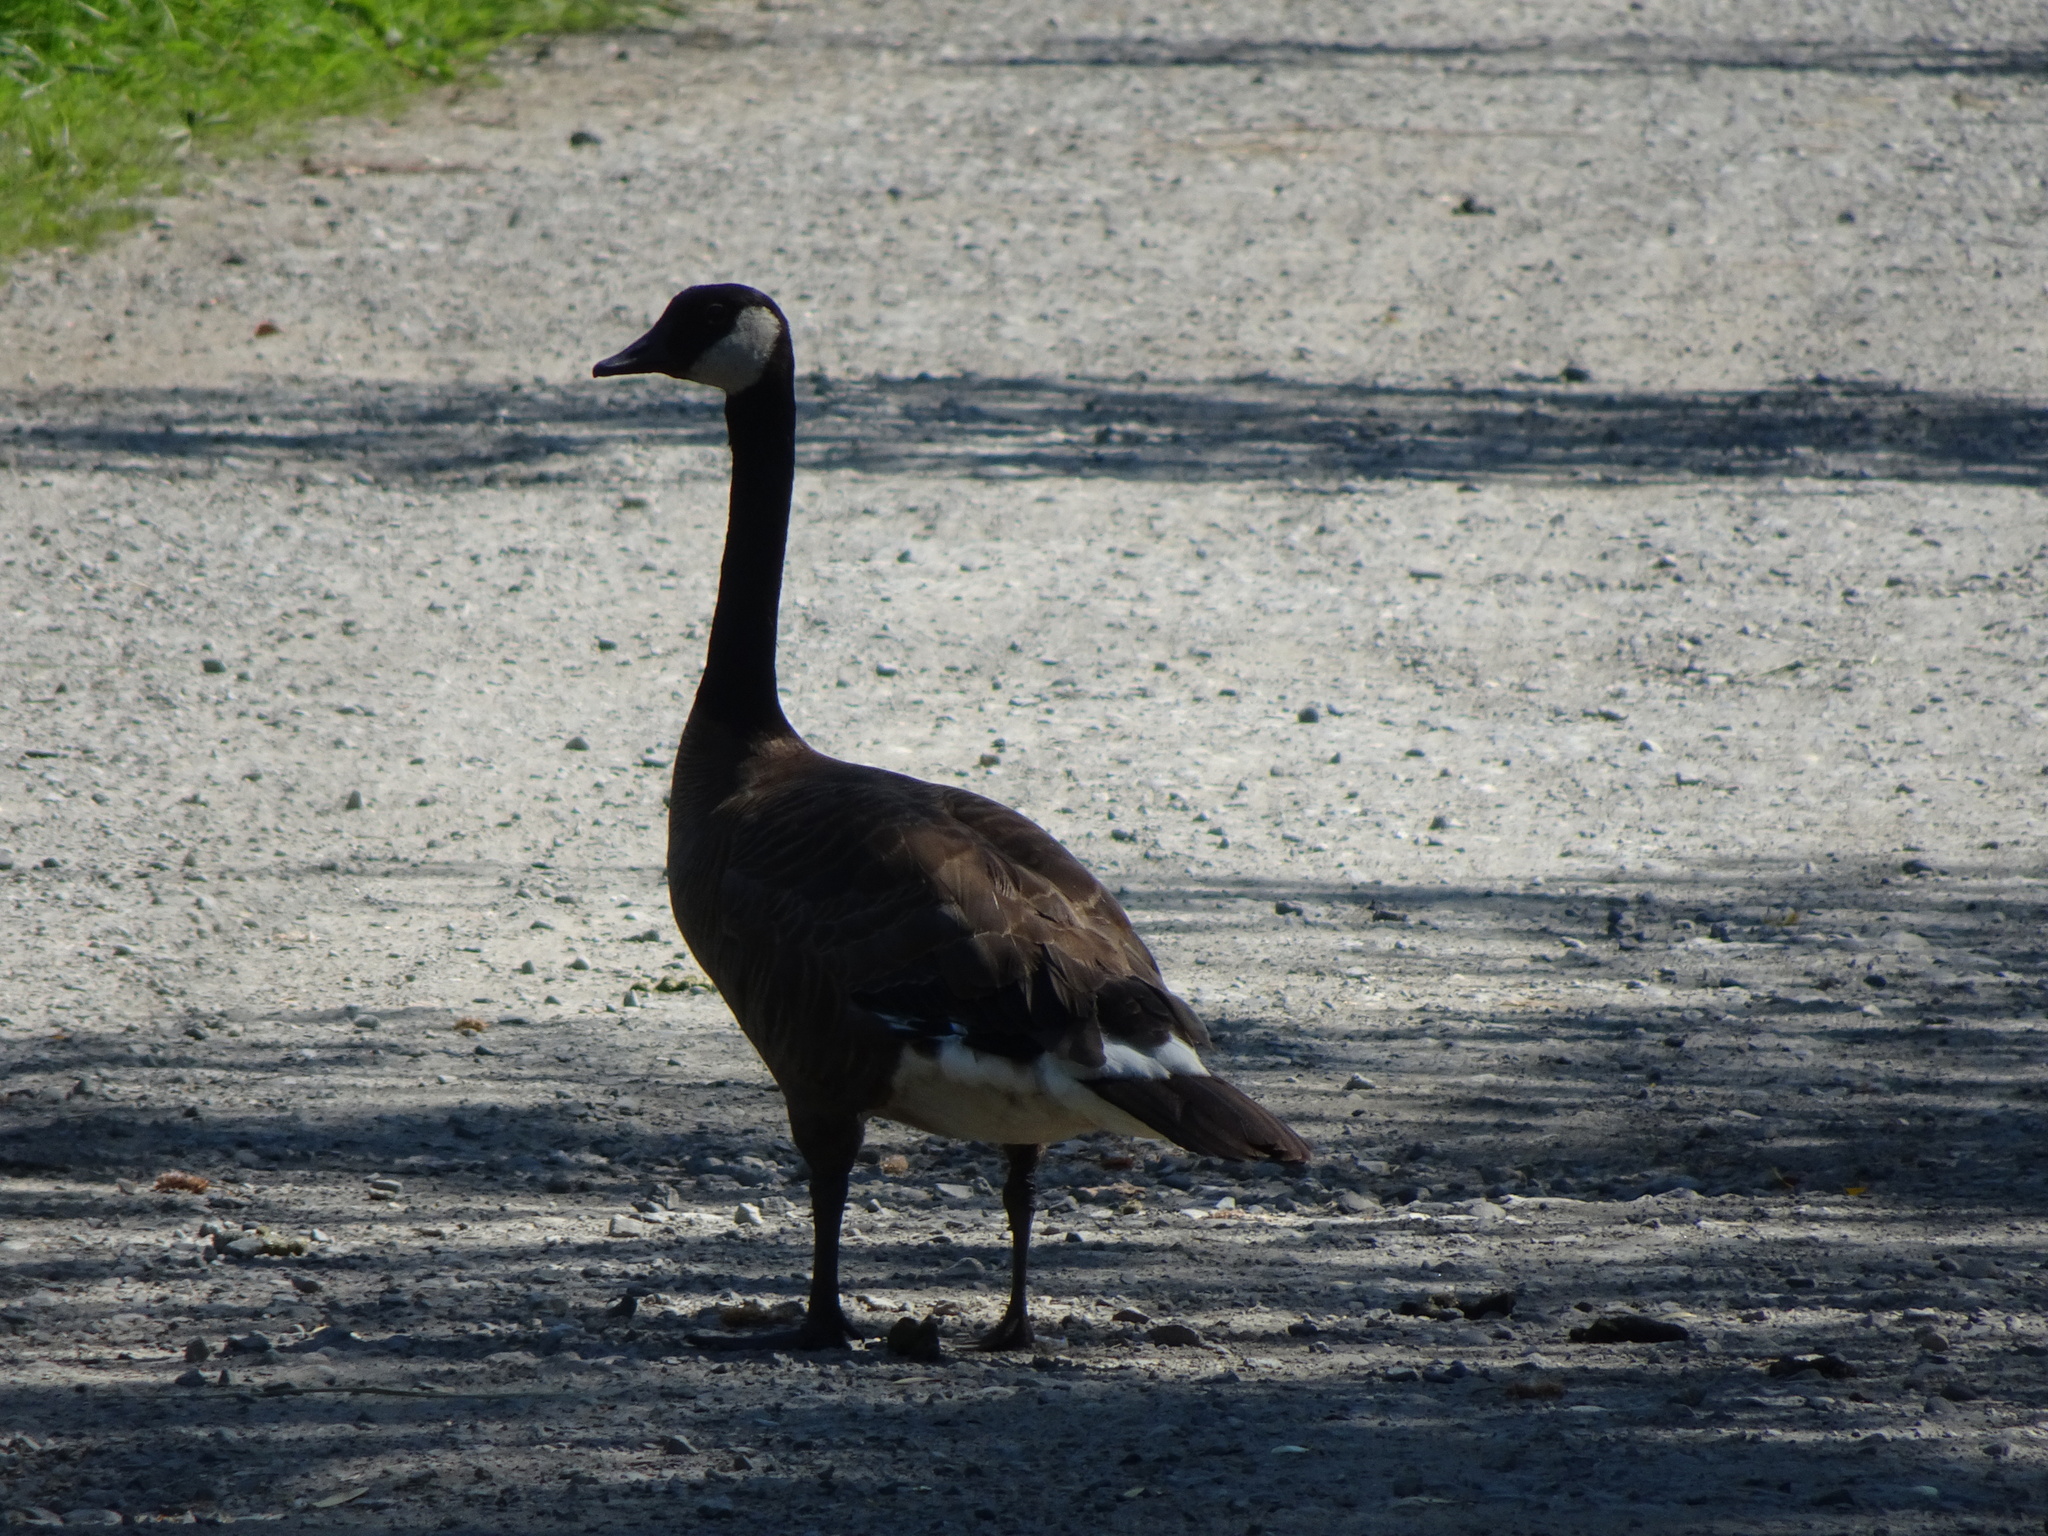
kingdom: Animalia
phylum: Chordata
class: Aves
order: Anseriformes
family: Anatidae
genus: Branta
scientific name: Branta canadensis
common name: Canada goose
